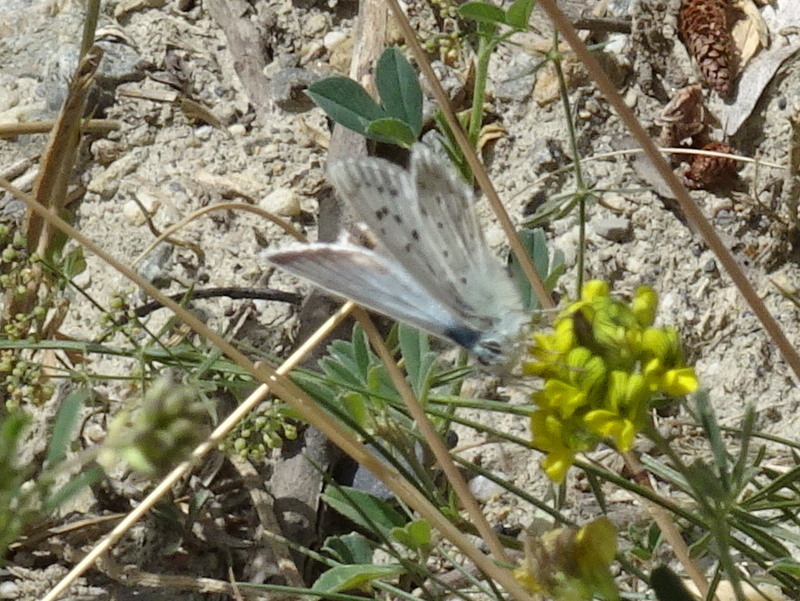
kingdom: Animalia
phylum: Arthropoda
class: Insecta
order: Lepidoptera
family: Lycaenidae
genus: Lysandra
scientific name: Lysandra coridon
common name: Chalkhill blue
